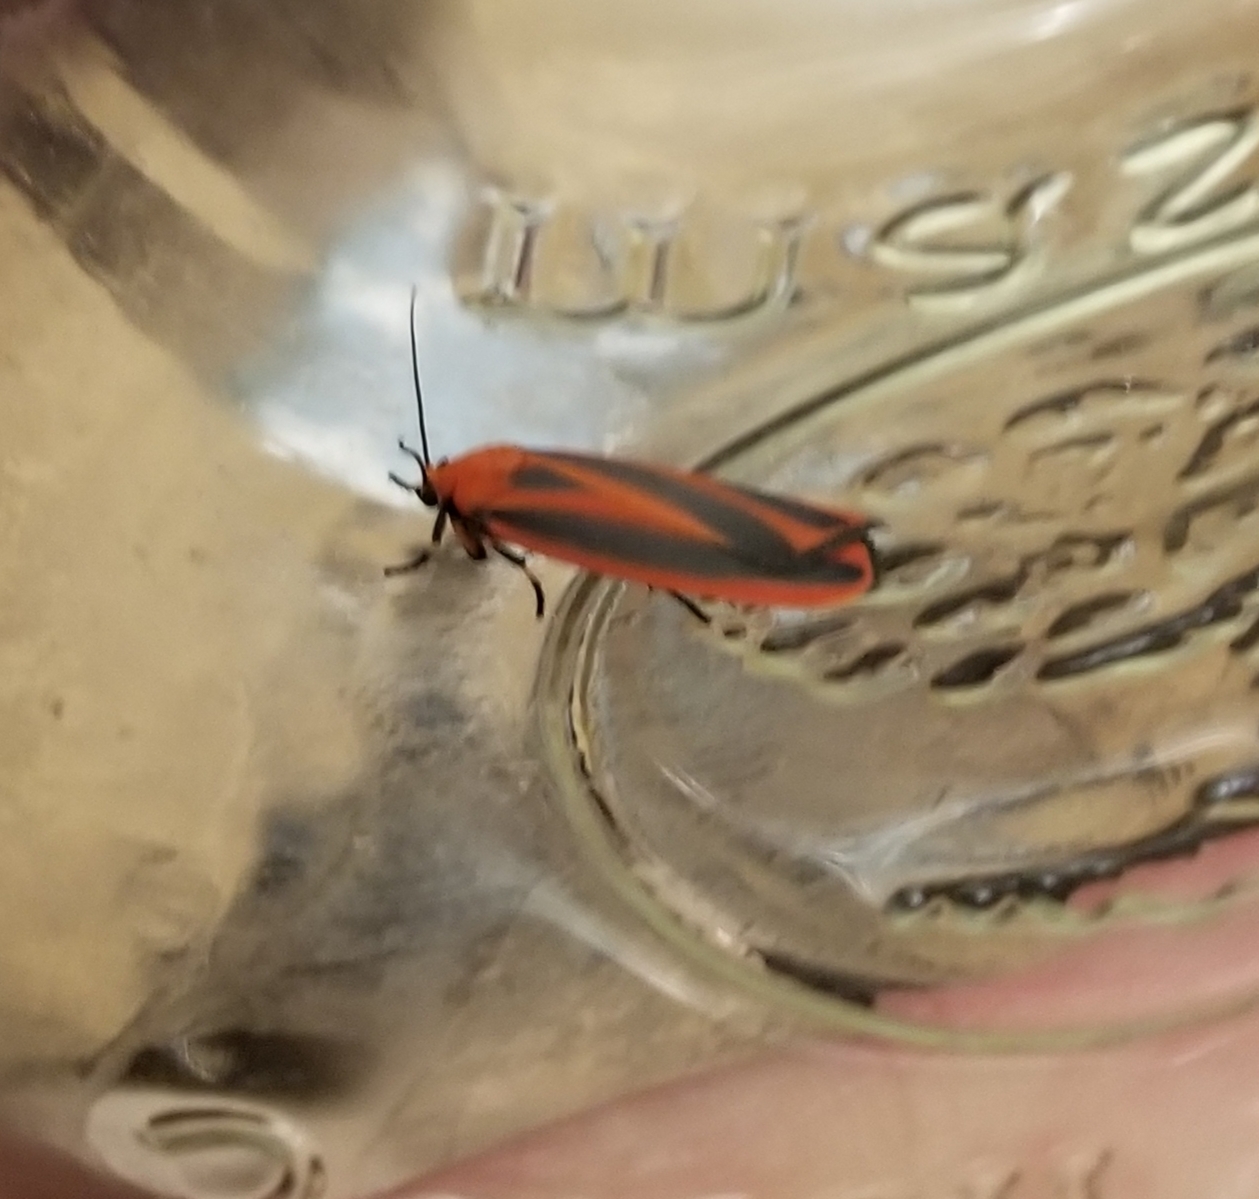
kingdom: Animalia
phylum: Arthropoda
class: Insecta
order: Lepidoptera
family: Erebidae
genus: Hypoprepia
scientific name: Hypoprepia miniata
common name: Scarlet-winged lichen moth
